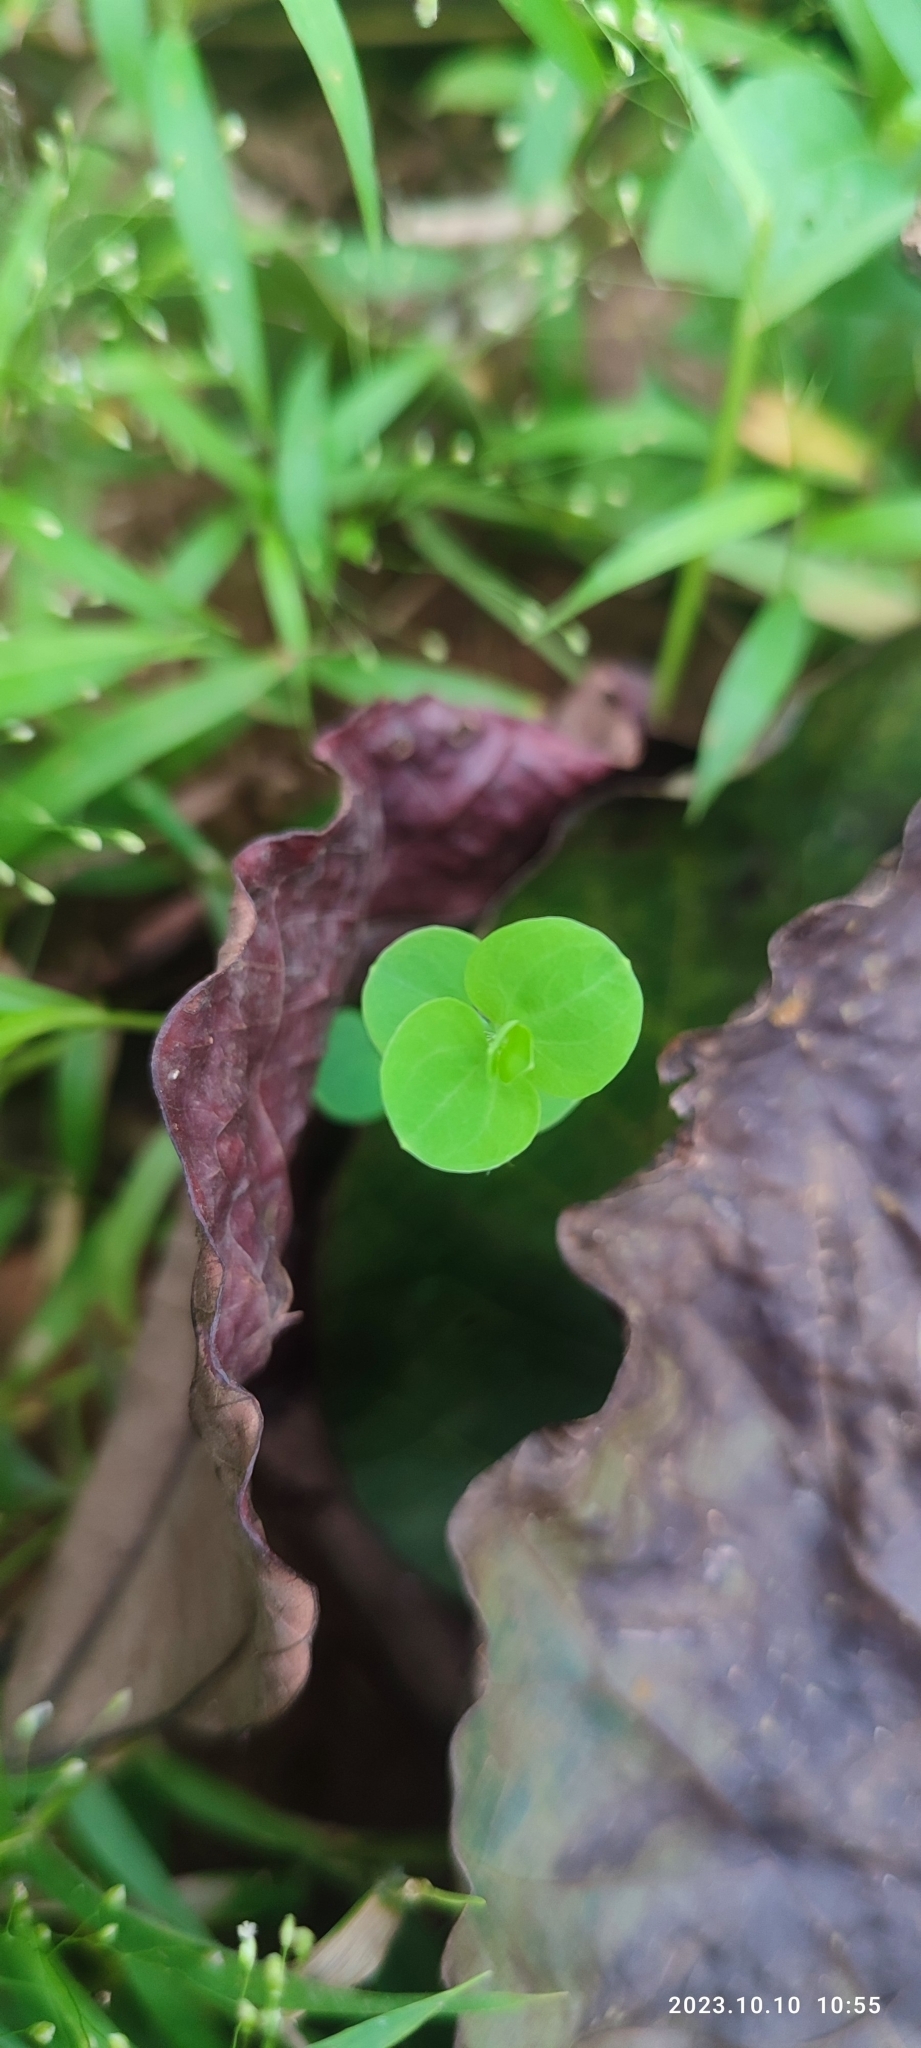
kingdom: Plantae
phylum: Tracheophyta
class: Magnoliopsida
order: Caryophyllales
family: Caryophyllaceae
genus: Drymaria
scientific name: Drymaria cordata
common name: Whitesnow
